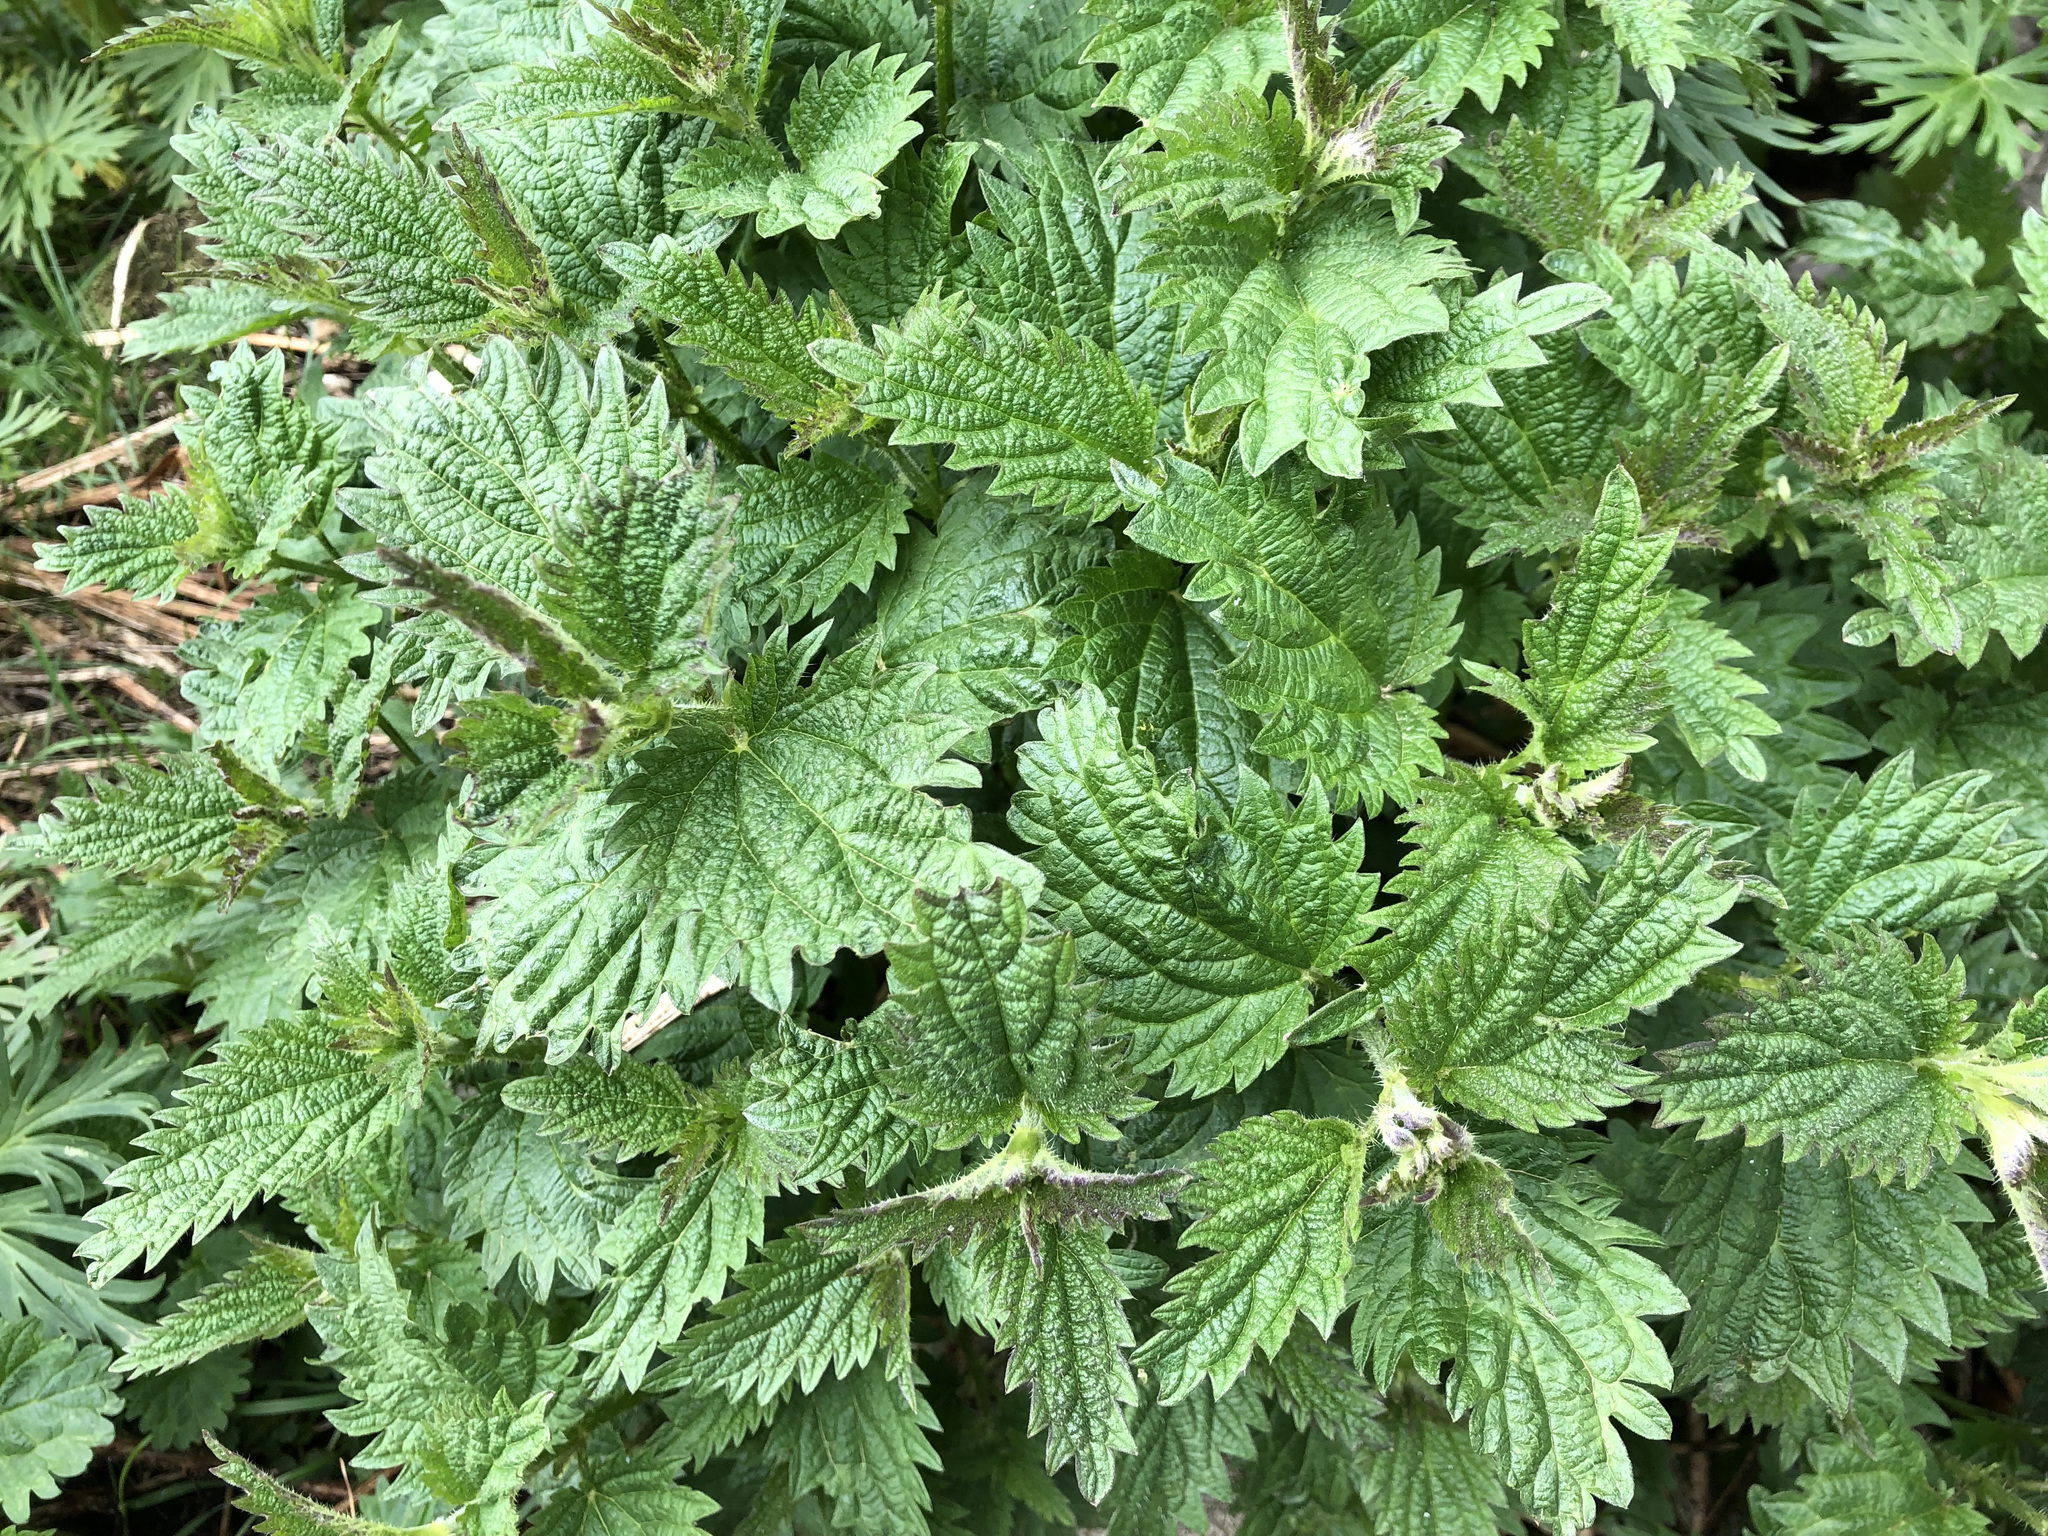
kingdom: Plantae
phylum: Tracheophyta
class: Magnoliopsida
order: Rosales
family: Urticaceae
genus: Urtica
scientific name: Urtica dioica
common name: Common nettle
